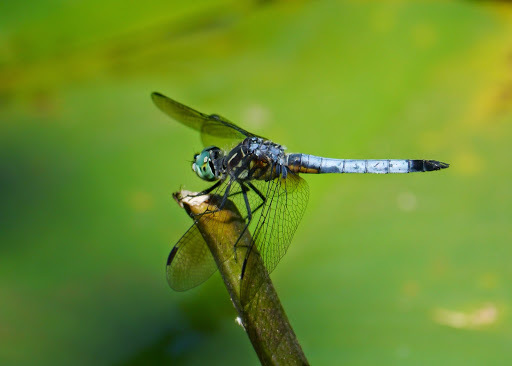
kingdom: Animalia
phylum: Arthropoda
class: Insecta
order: Odonata
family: Libellulidae
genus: Pachydiplax
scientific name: Pachydiplax longipennis
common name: Blue dasher
